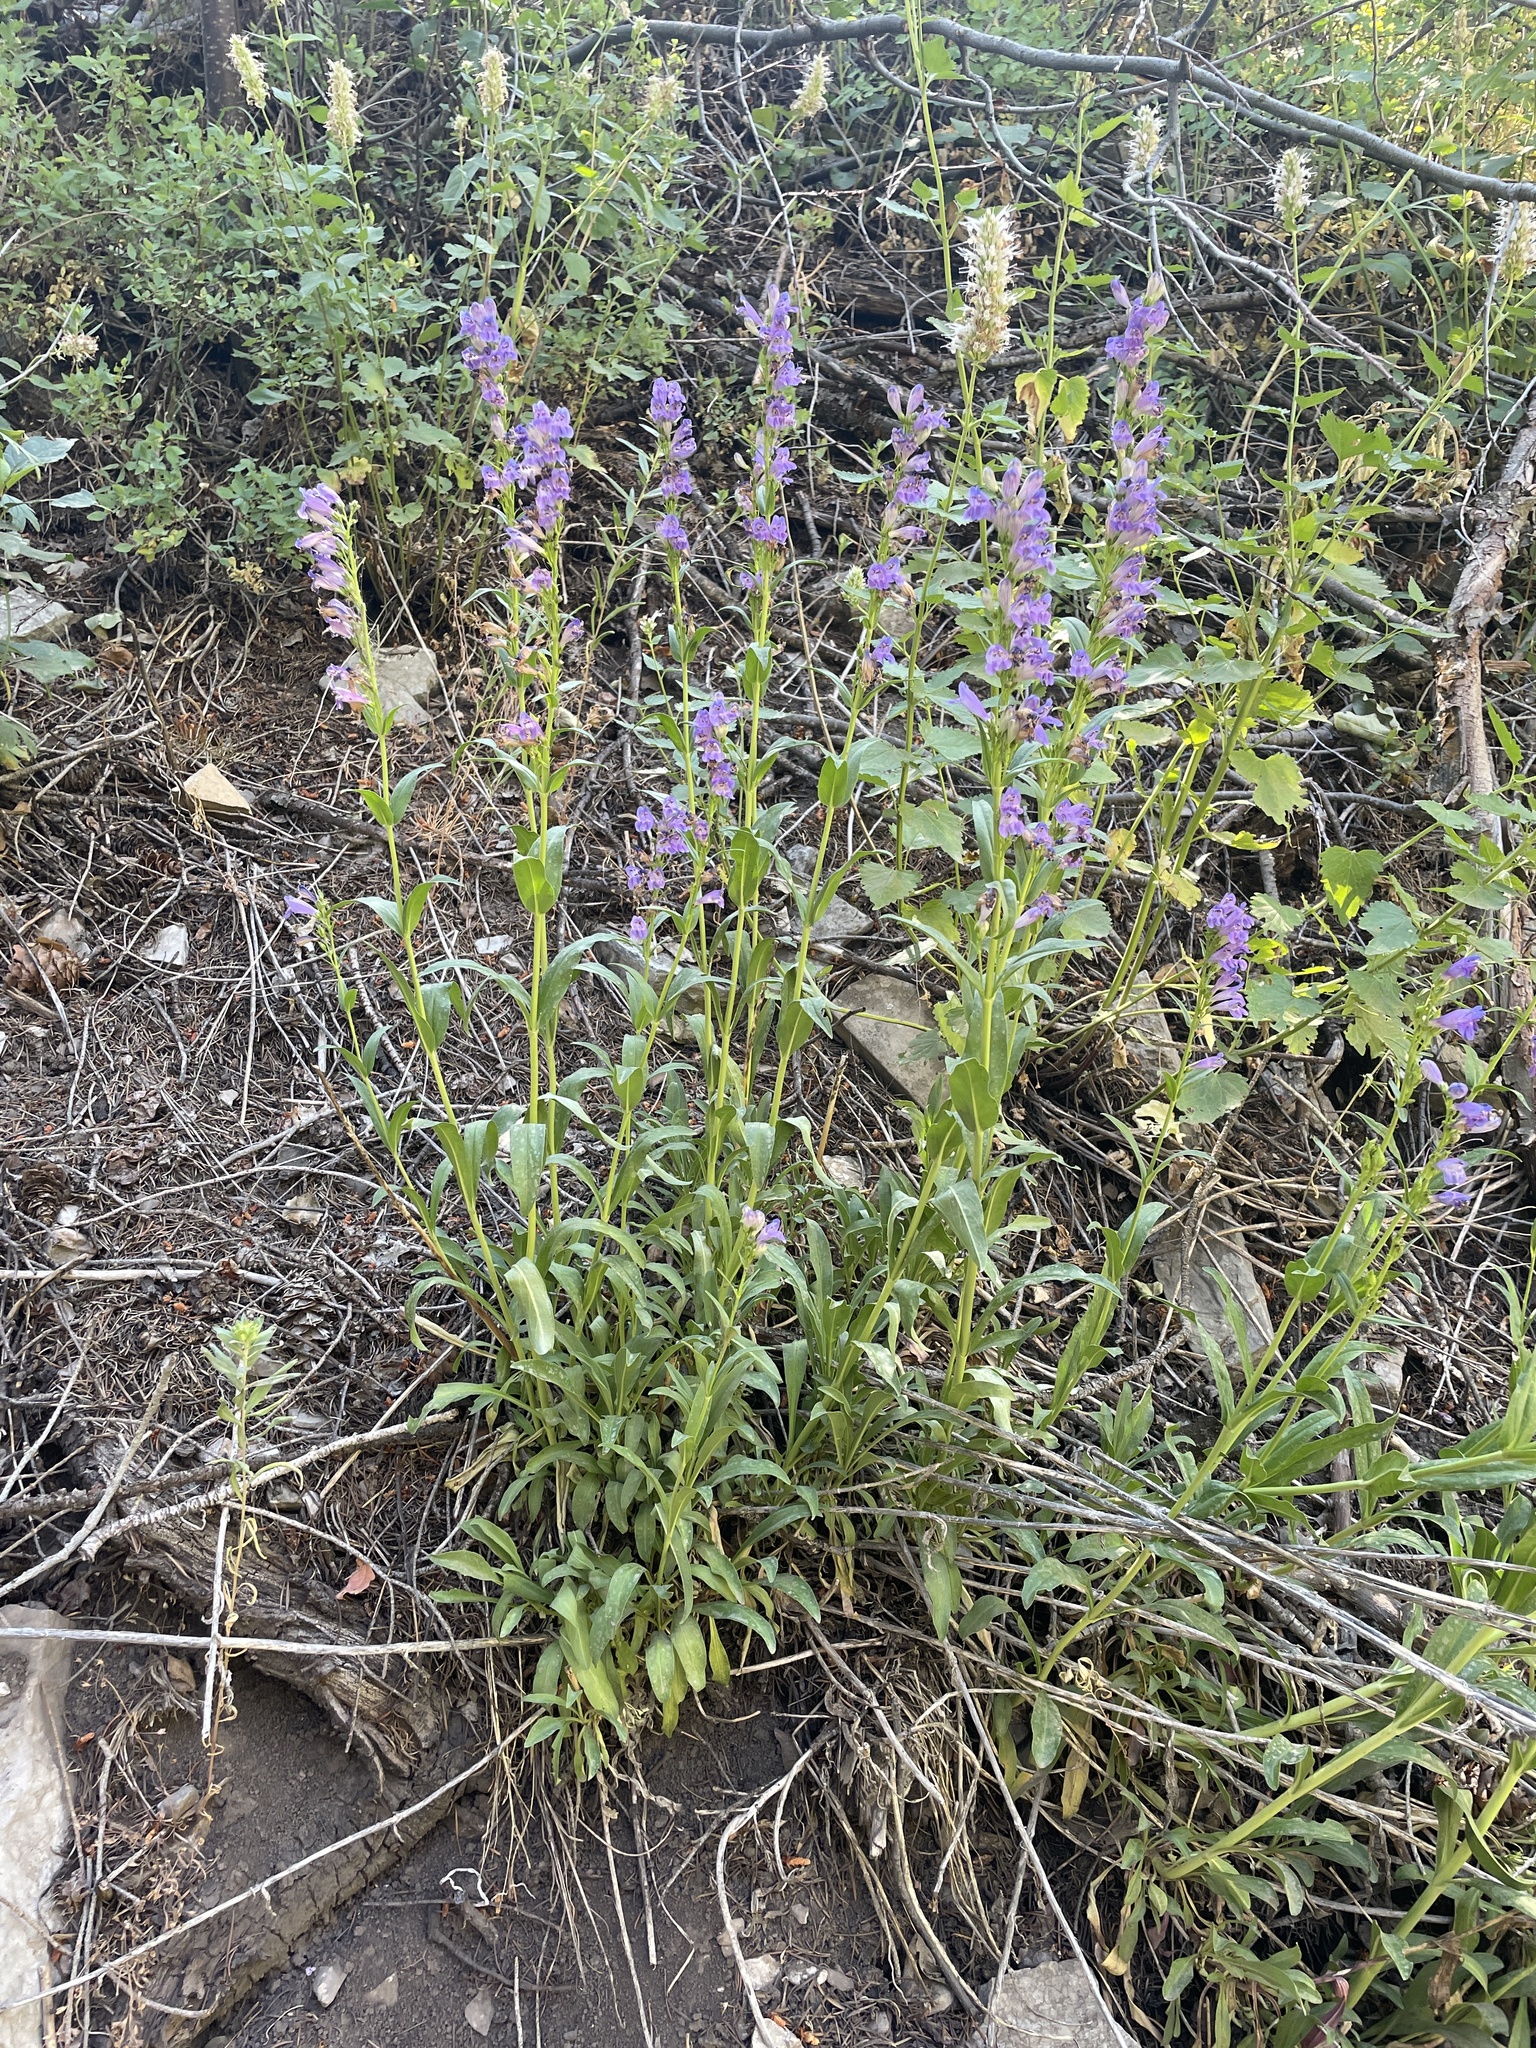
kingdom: Plantae
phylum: Tracheophyta
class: Magnoliopsida
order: Lamiales
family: Plantaginaceae
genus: Penstemon
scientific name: Penstemon strictus
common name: Rocky mountain penstemon
